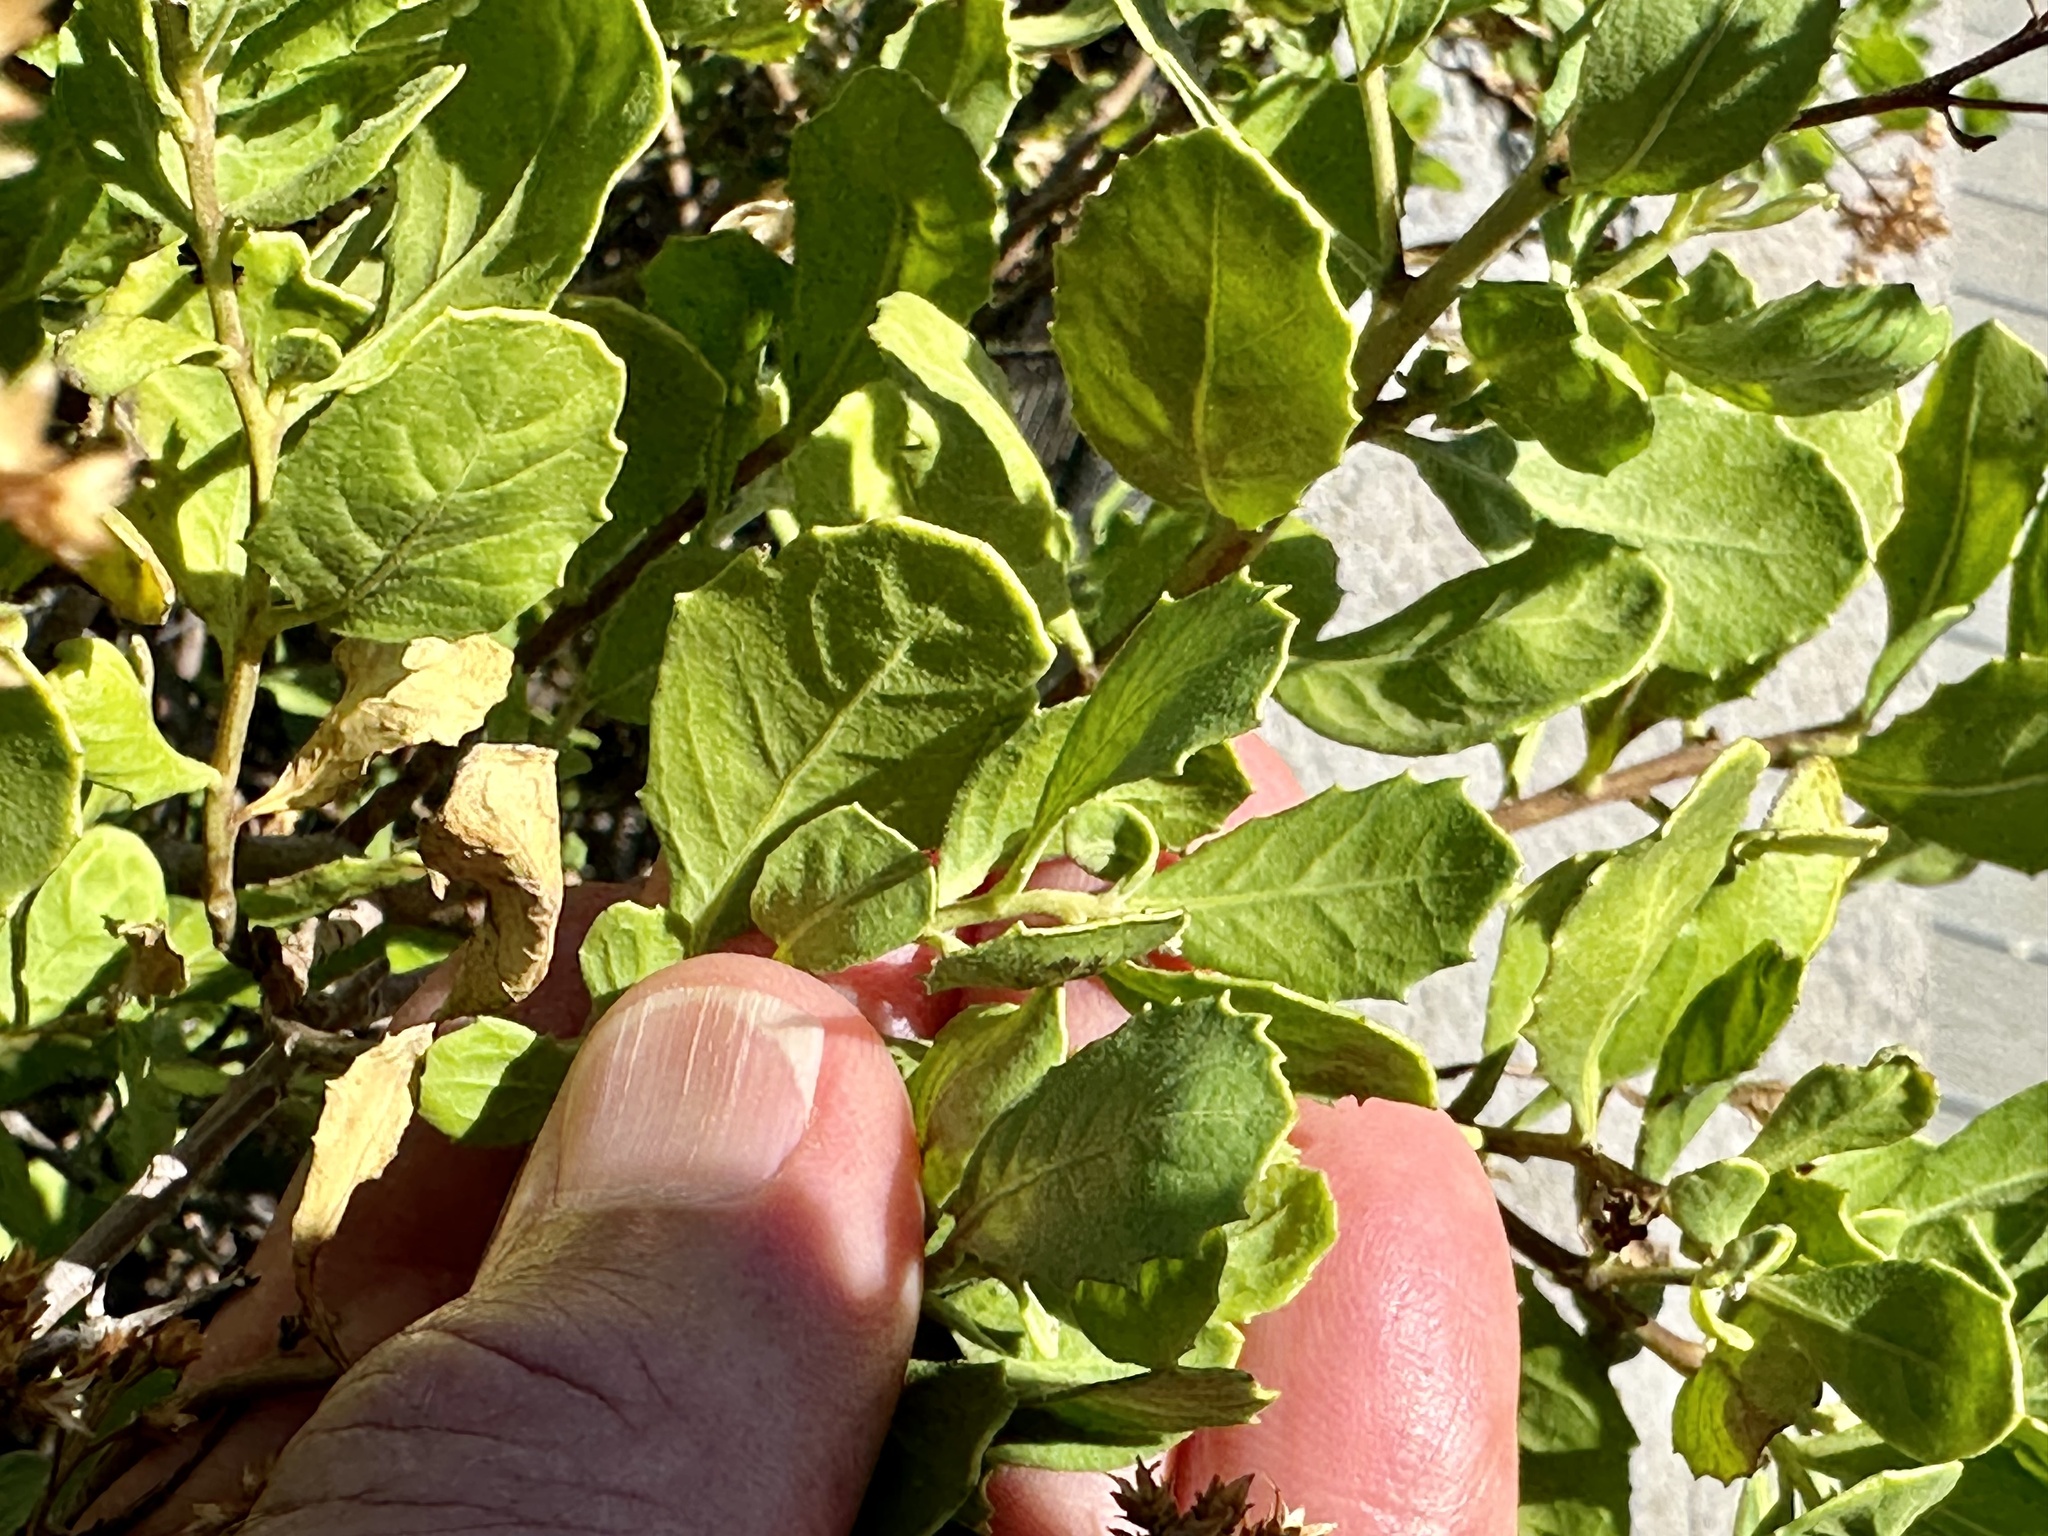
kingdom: Plantae
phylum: Tracheophyta
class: Magnoliopsida
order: Asterales
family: Asteraceae
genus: Pluchea
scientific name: Pluchea indica
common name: Indian fleabane
